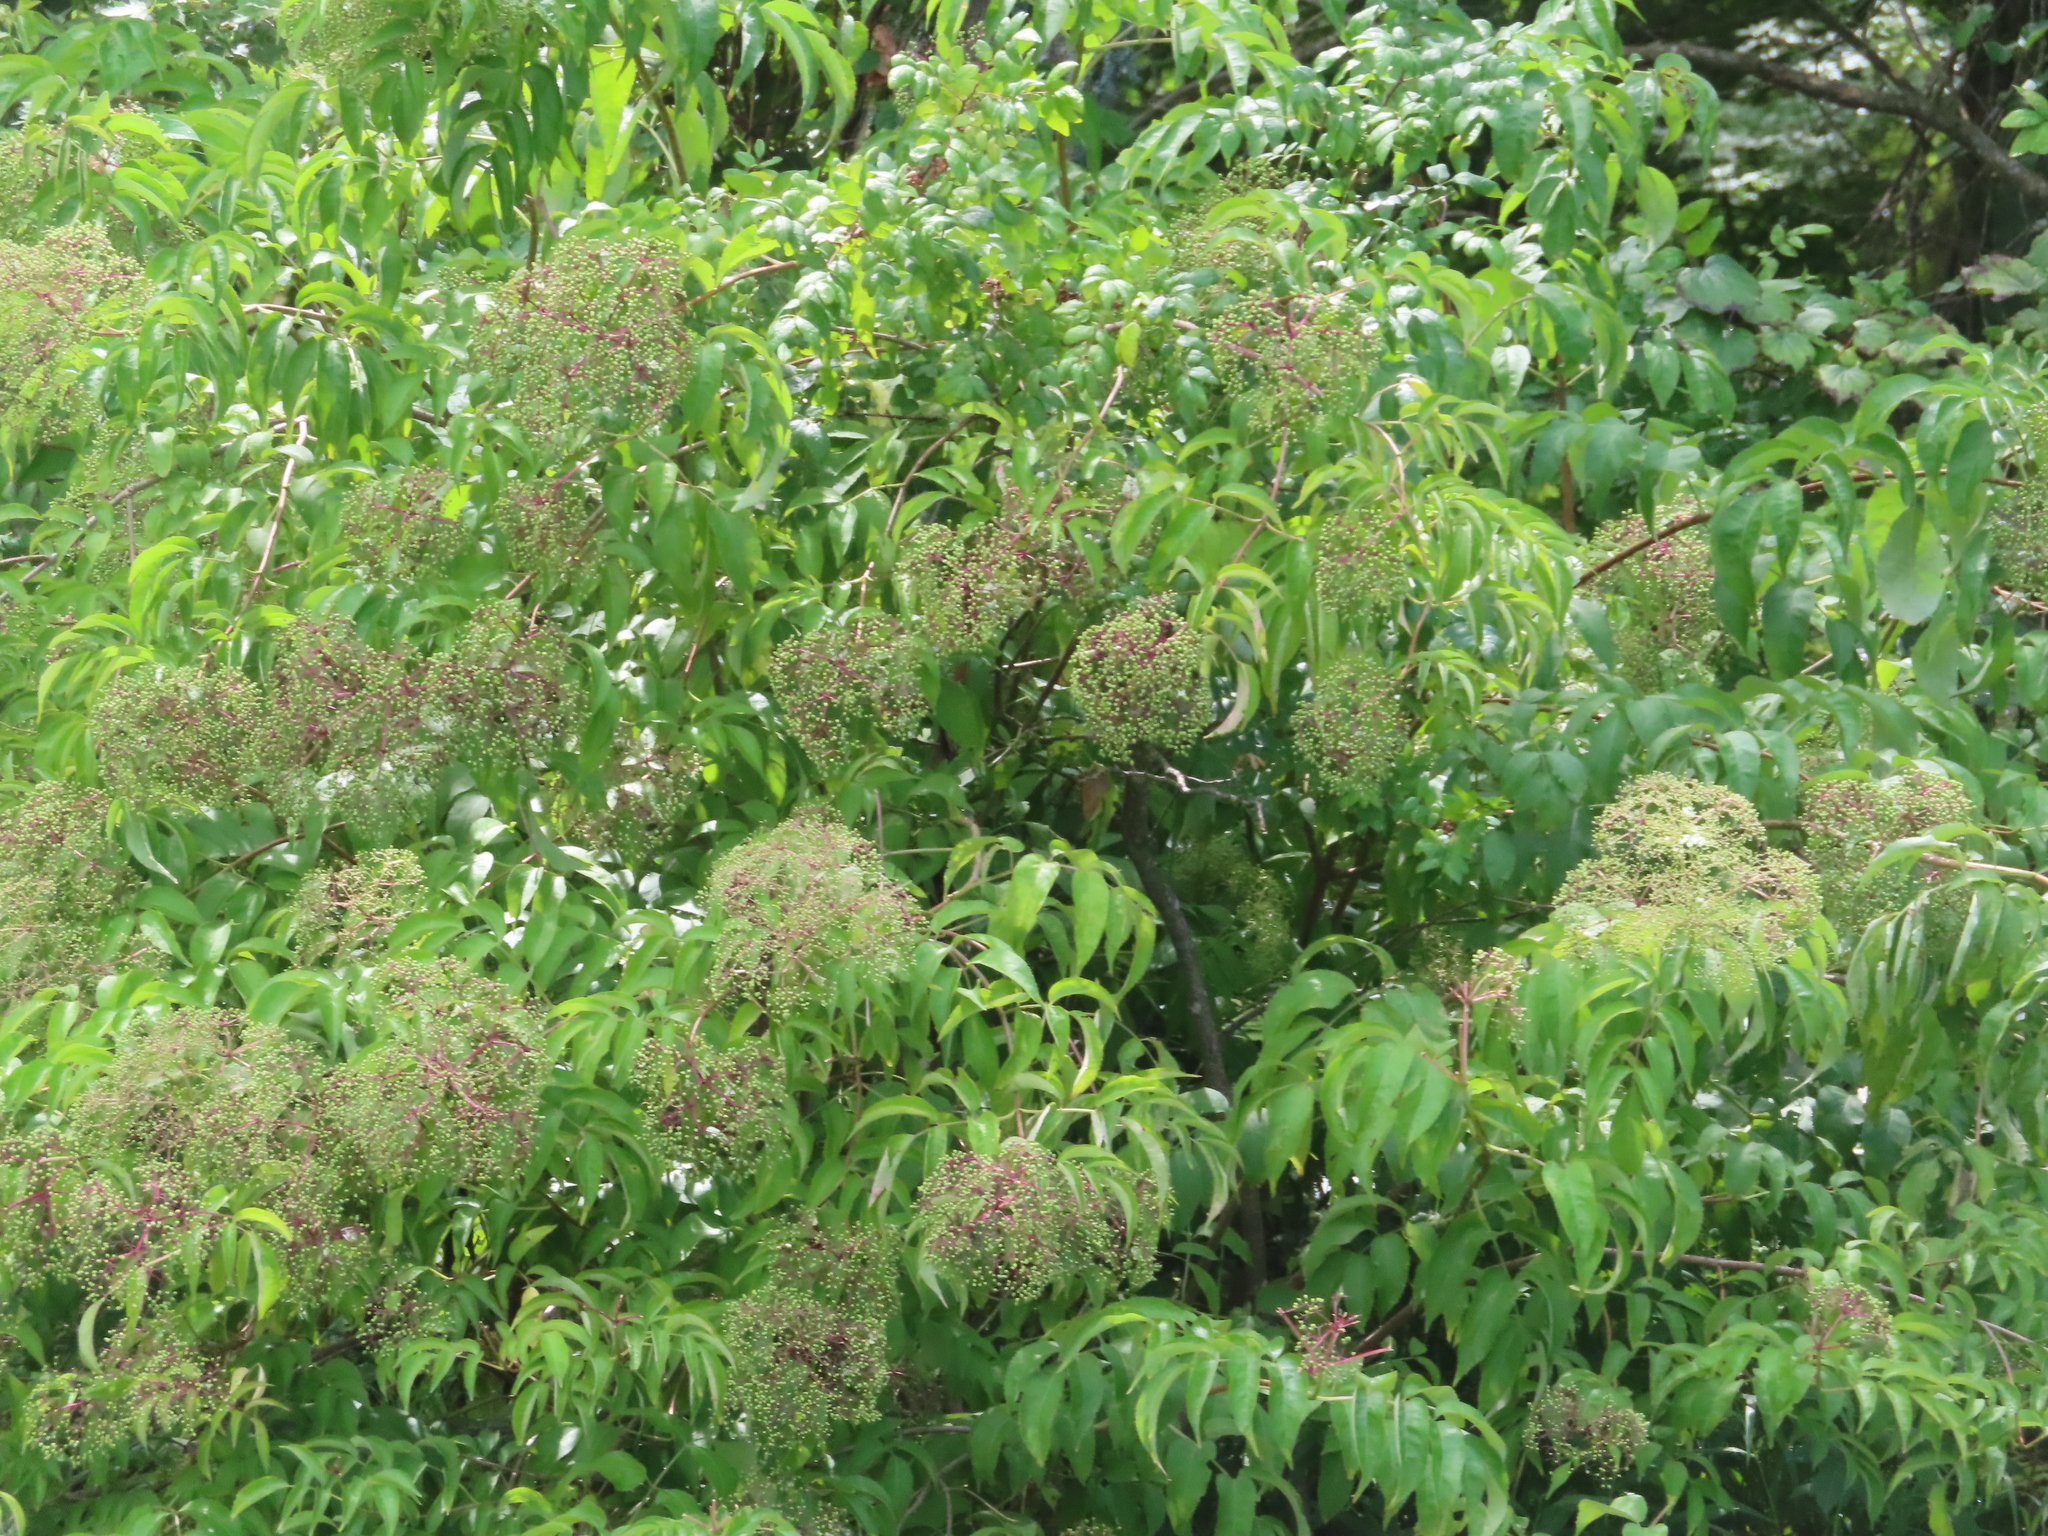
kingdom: Plantae
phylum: Tracheophyta
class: Magnoliopsida
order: Dipsacales
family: Viburnaceae
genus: Sambucus
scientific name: Sambucus canadensis
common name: American elder
